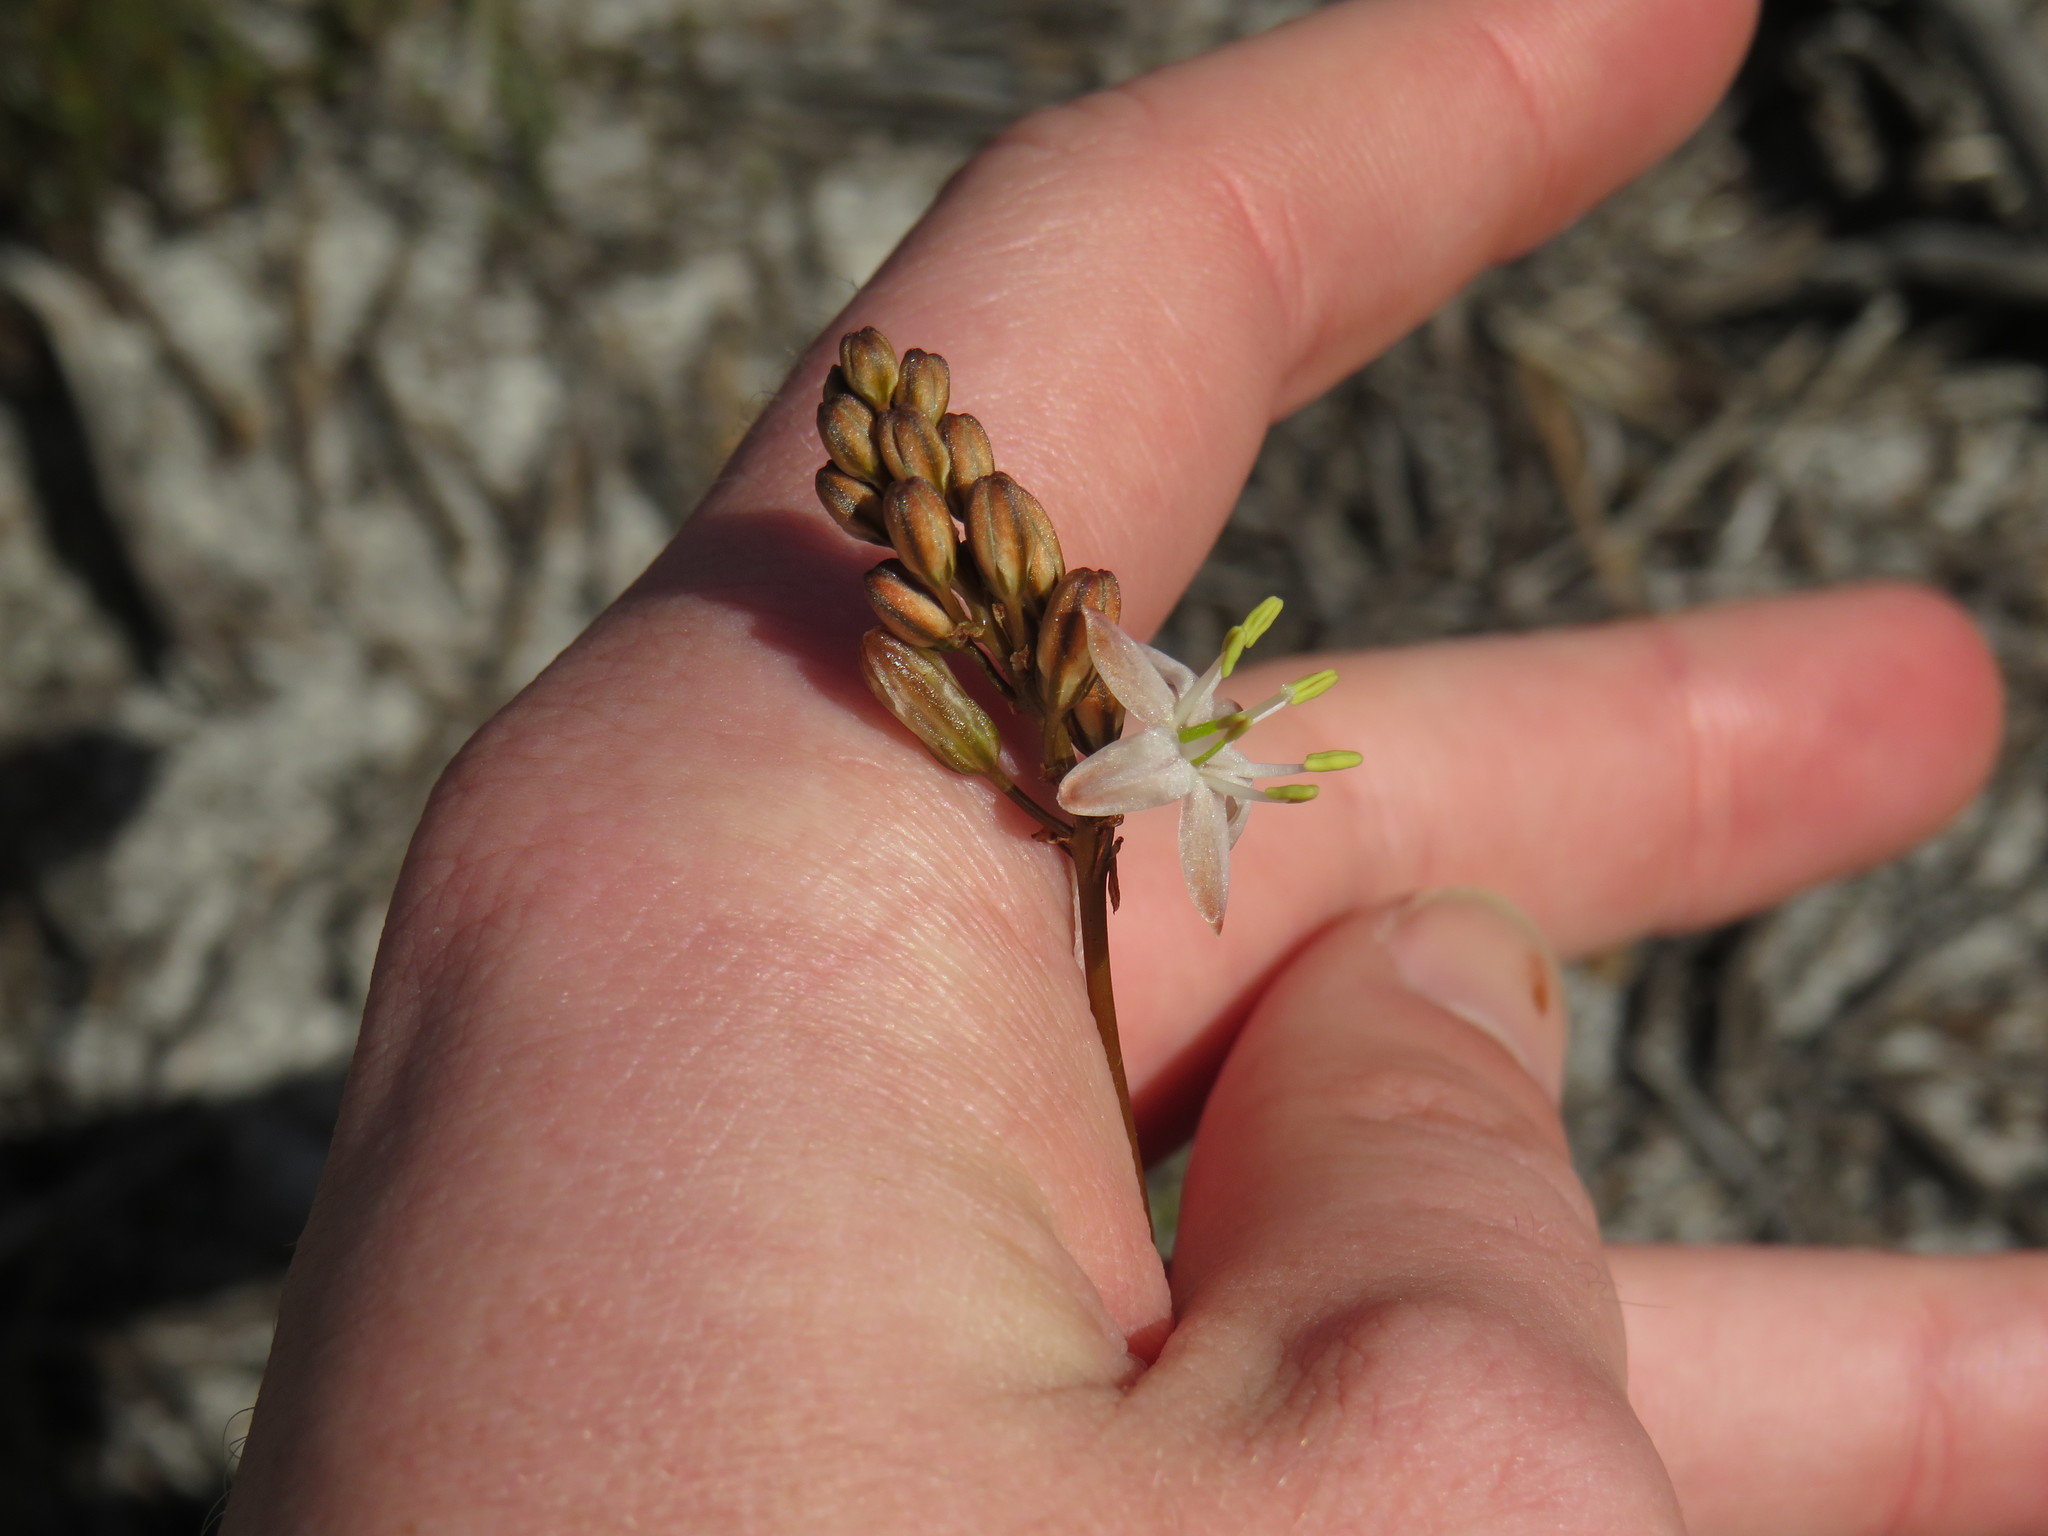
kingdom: Plantae
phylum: Tracheophyta
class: Liliopsida
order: Asparagales
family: Asparagaceae
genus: Drimia
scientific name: Drimia salteri
